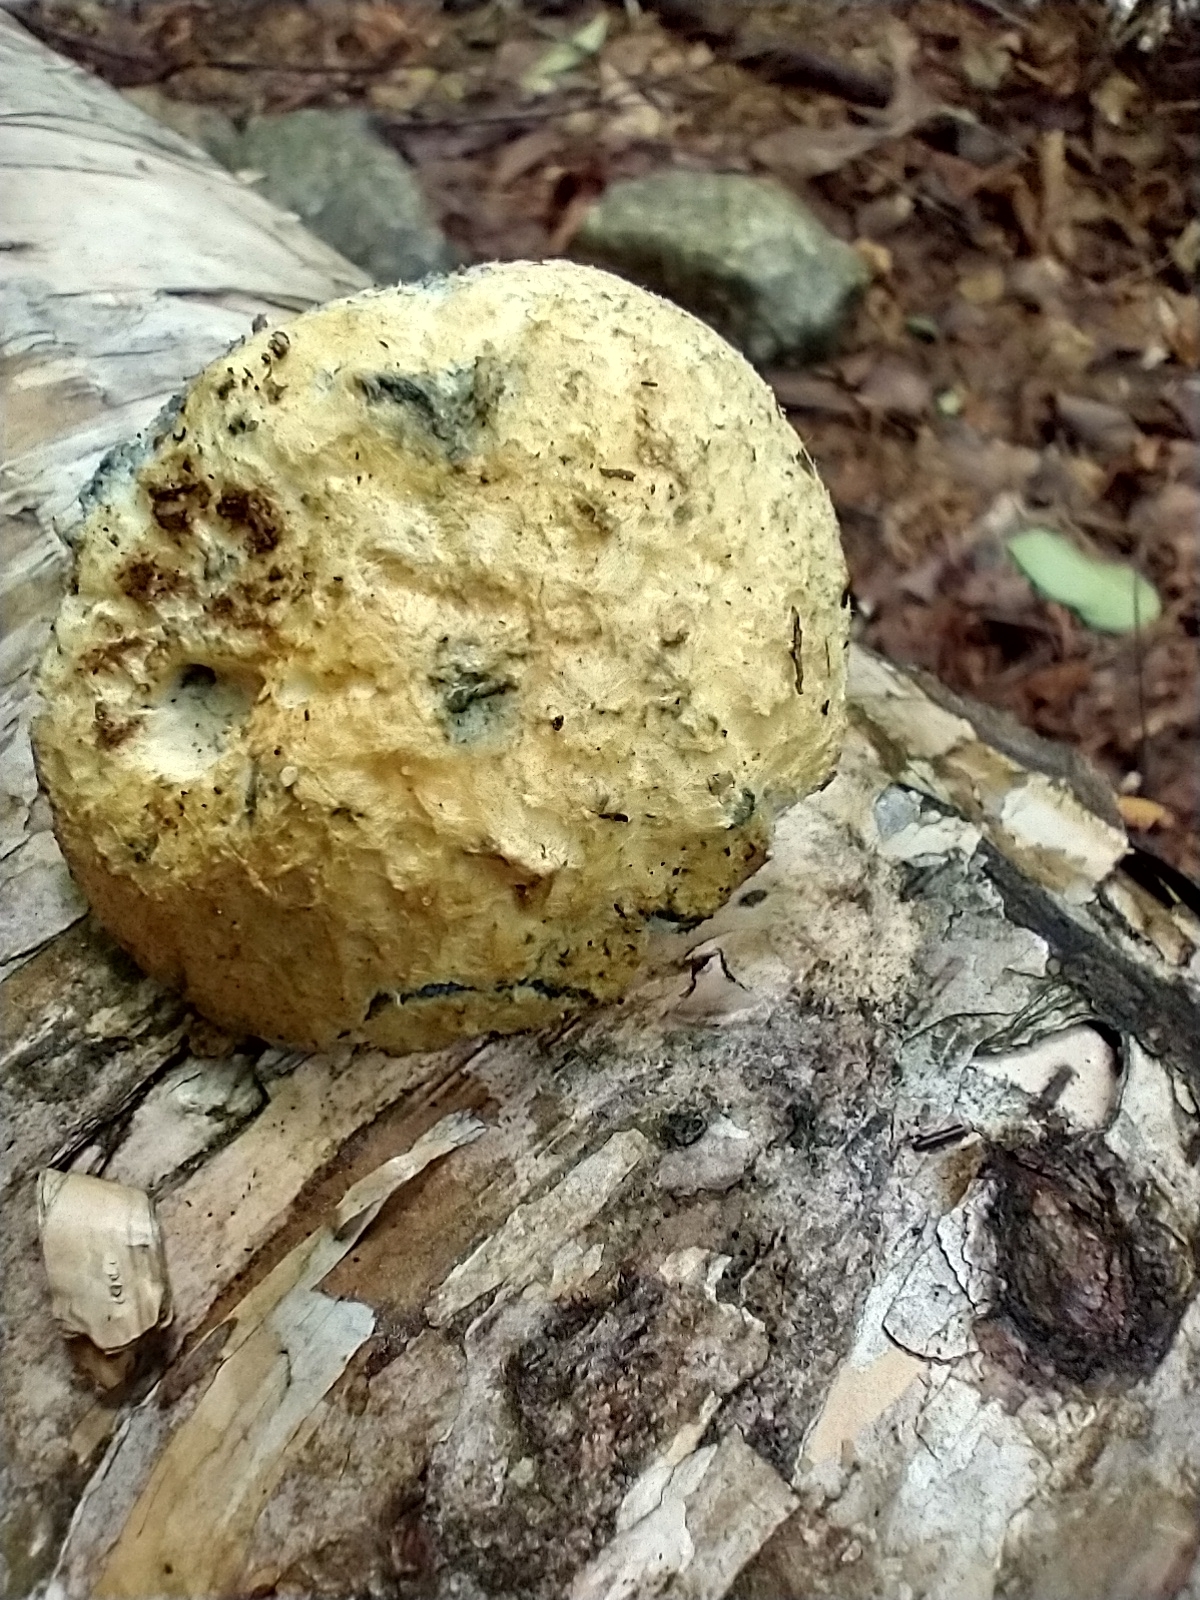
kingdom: Fungi
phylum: Basidiomycota
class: Agaricomycetes
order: Boletales
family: Gyroporaceae
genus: Gyroporus
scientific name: Gyroporus cyanescens
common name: Cornflower bolete
